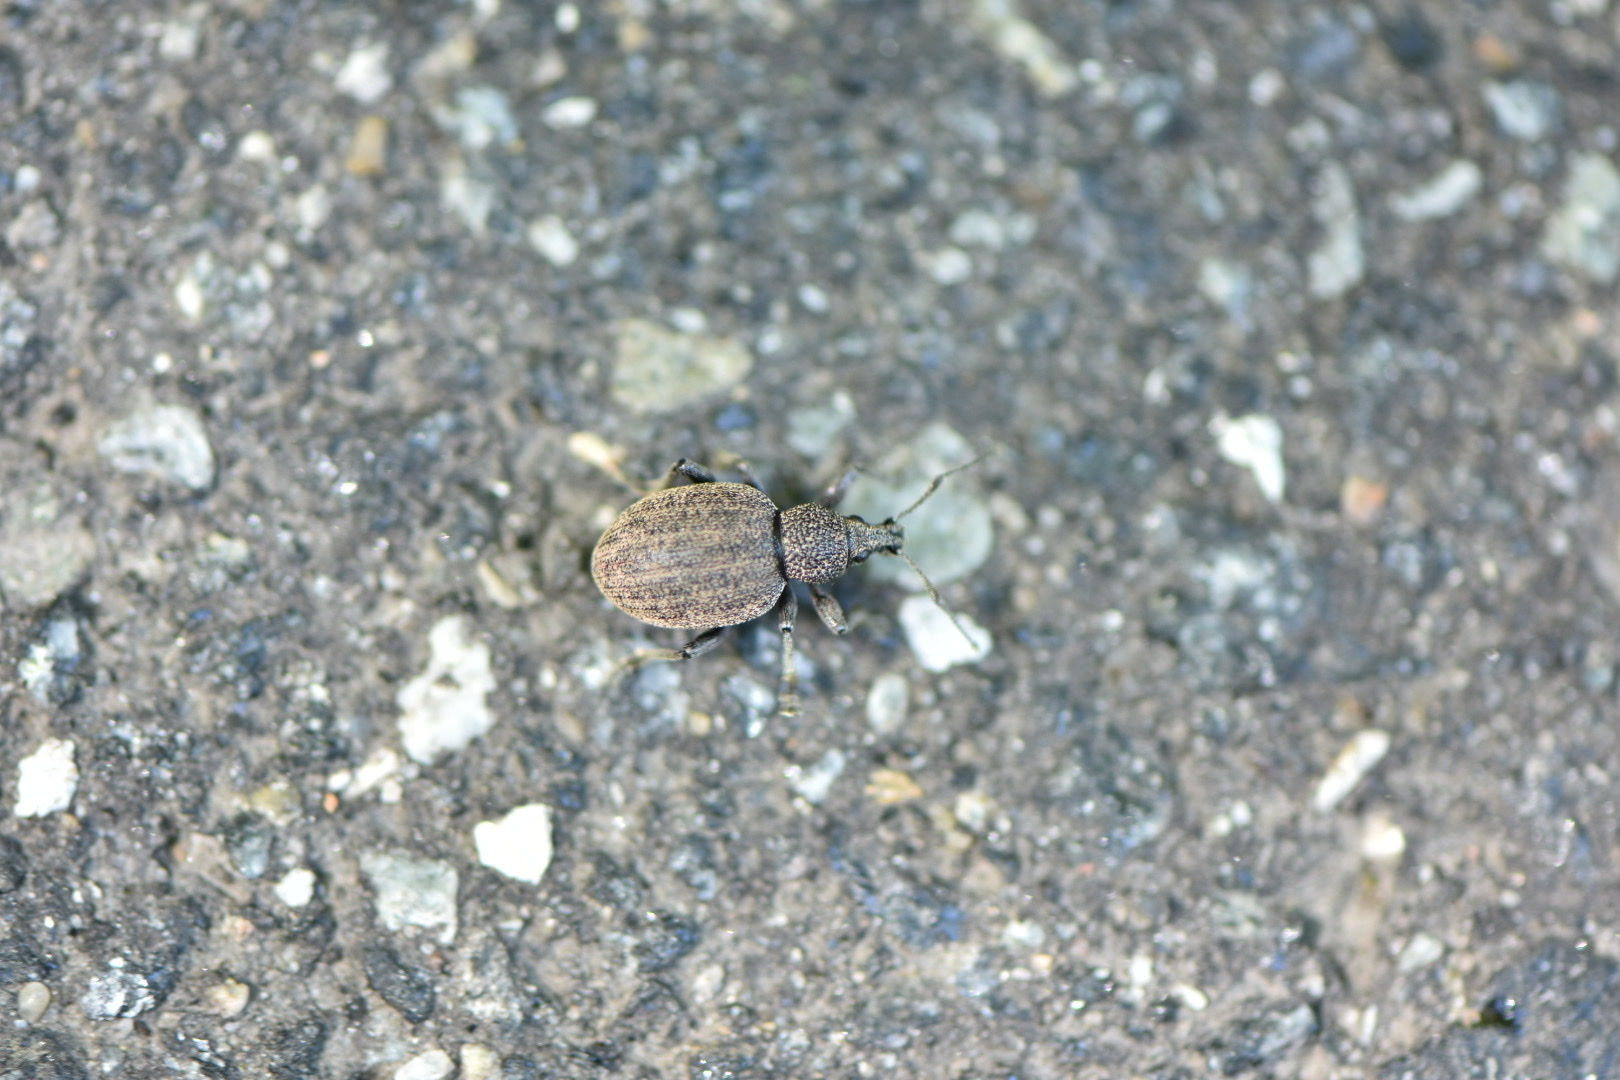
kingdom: Animalia
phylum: Arthropoda
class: Insecta
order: Coleoptera
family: Curculionidae
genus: Otiorhynchus
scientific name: Otiorhynchus ligustici
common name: Weevil
